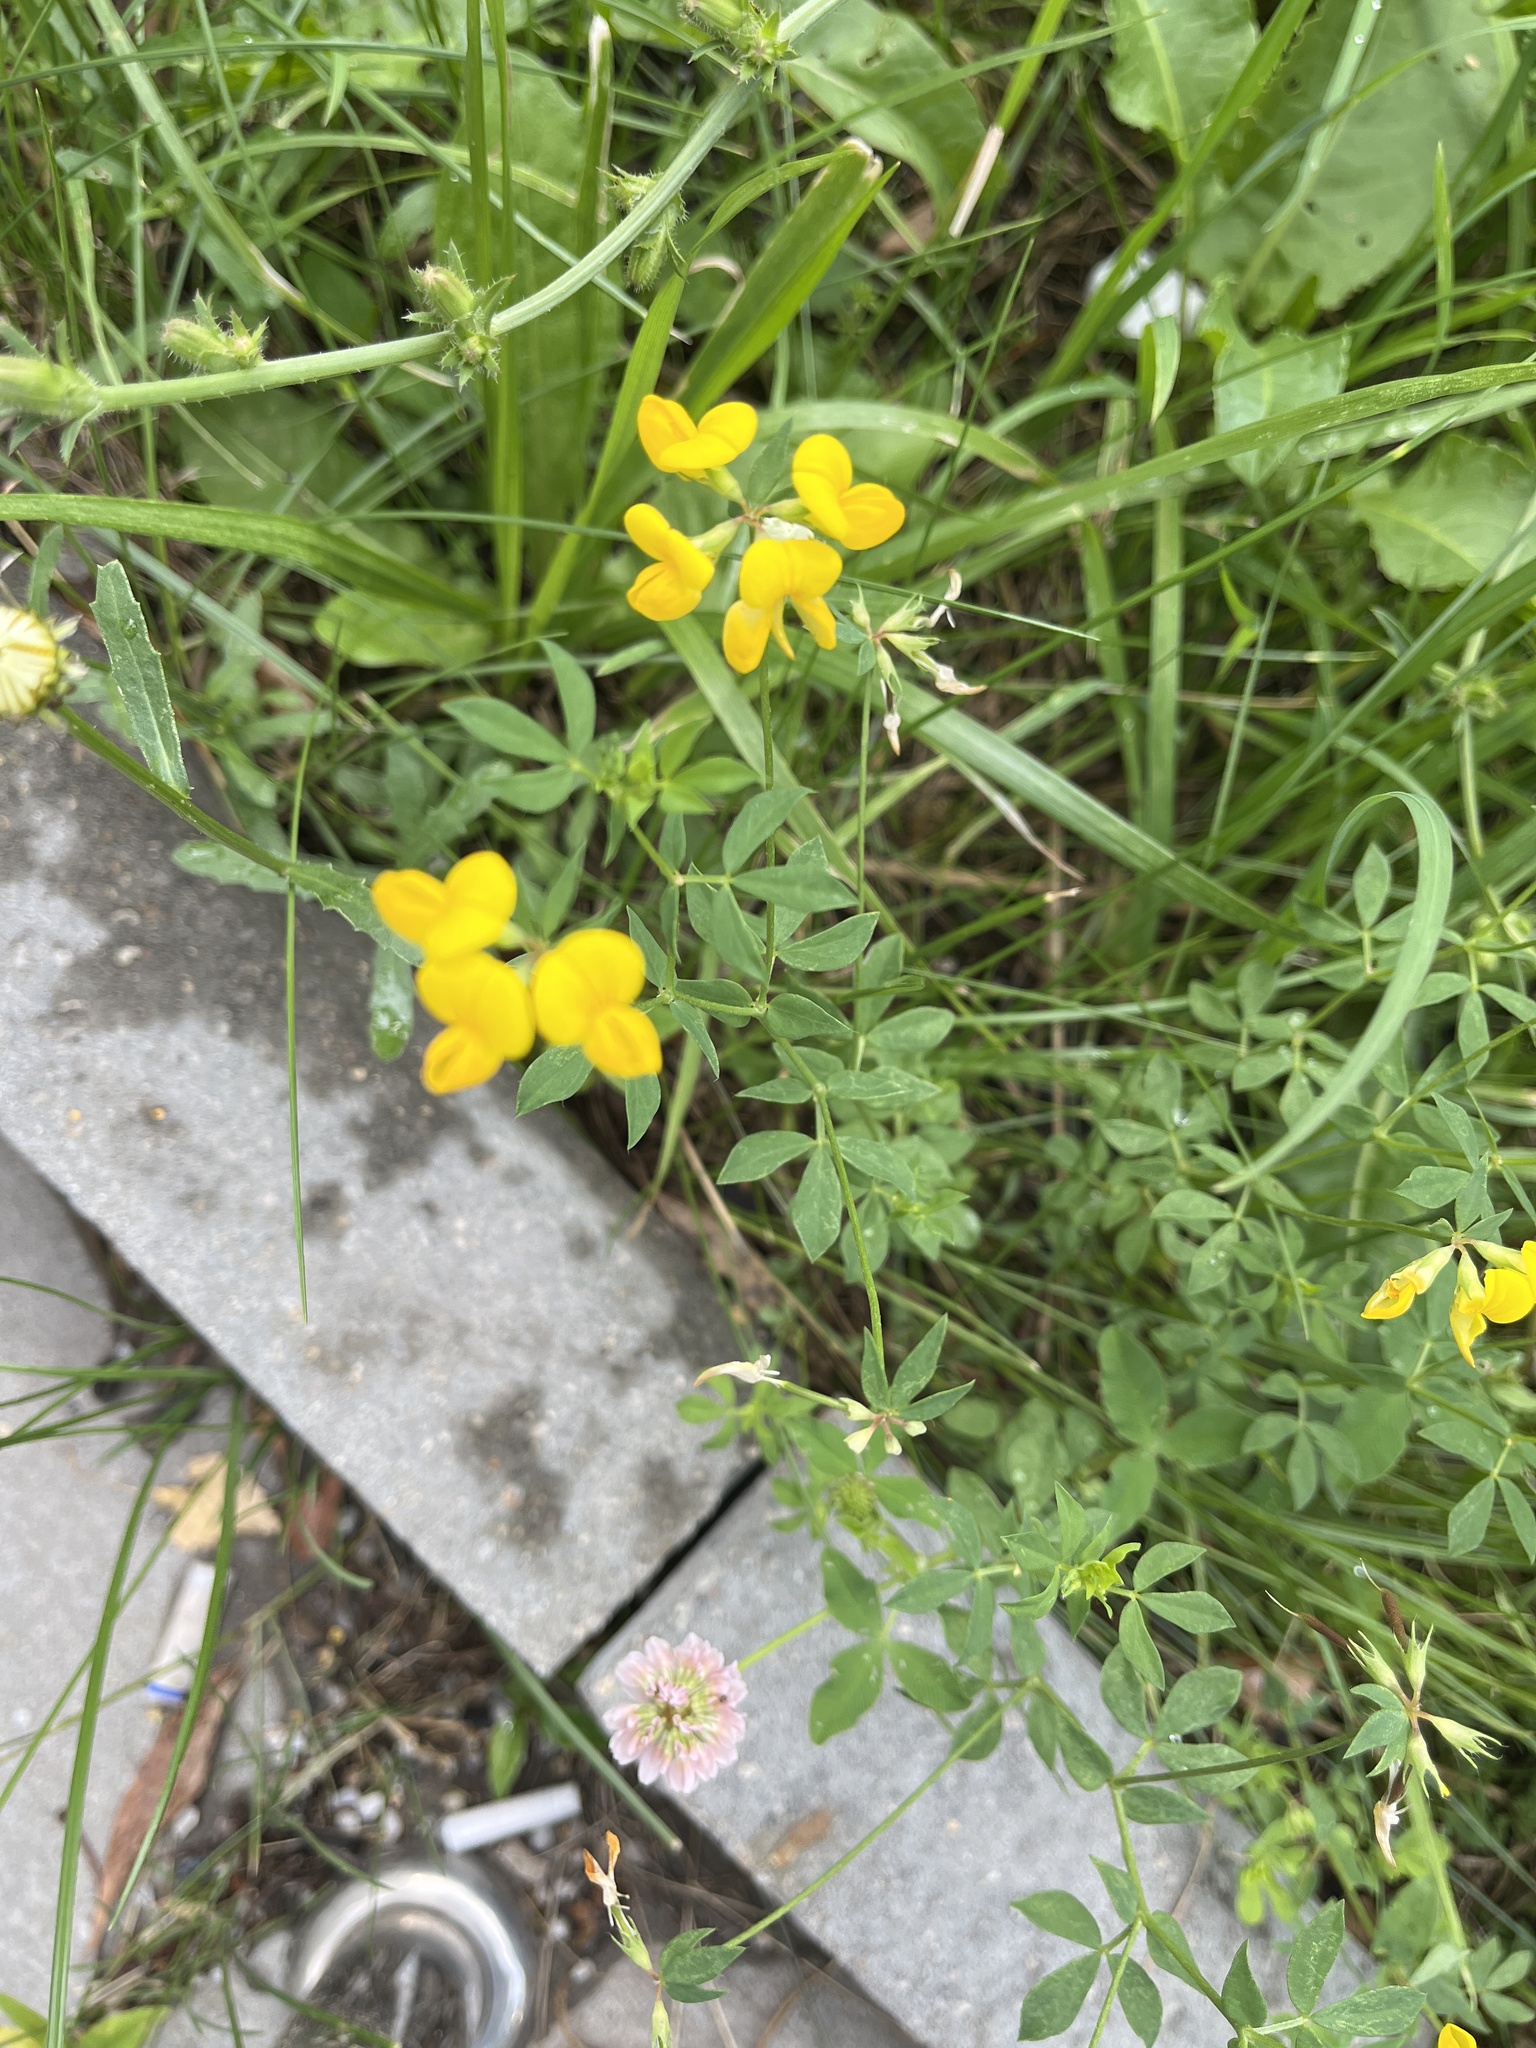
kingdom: Plantae
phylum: Tracheophyta
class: Magnoliopsida
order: Fabales
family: Fabaceae
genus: Lotus
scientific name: Lotus corniculatus
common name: Common bird's-foot-trefoil
